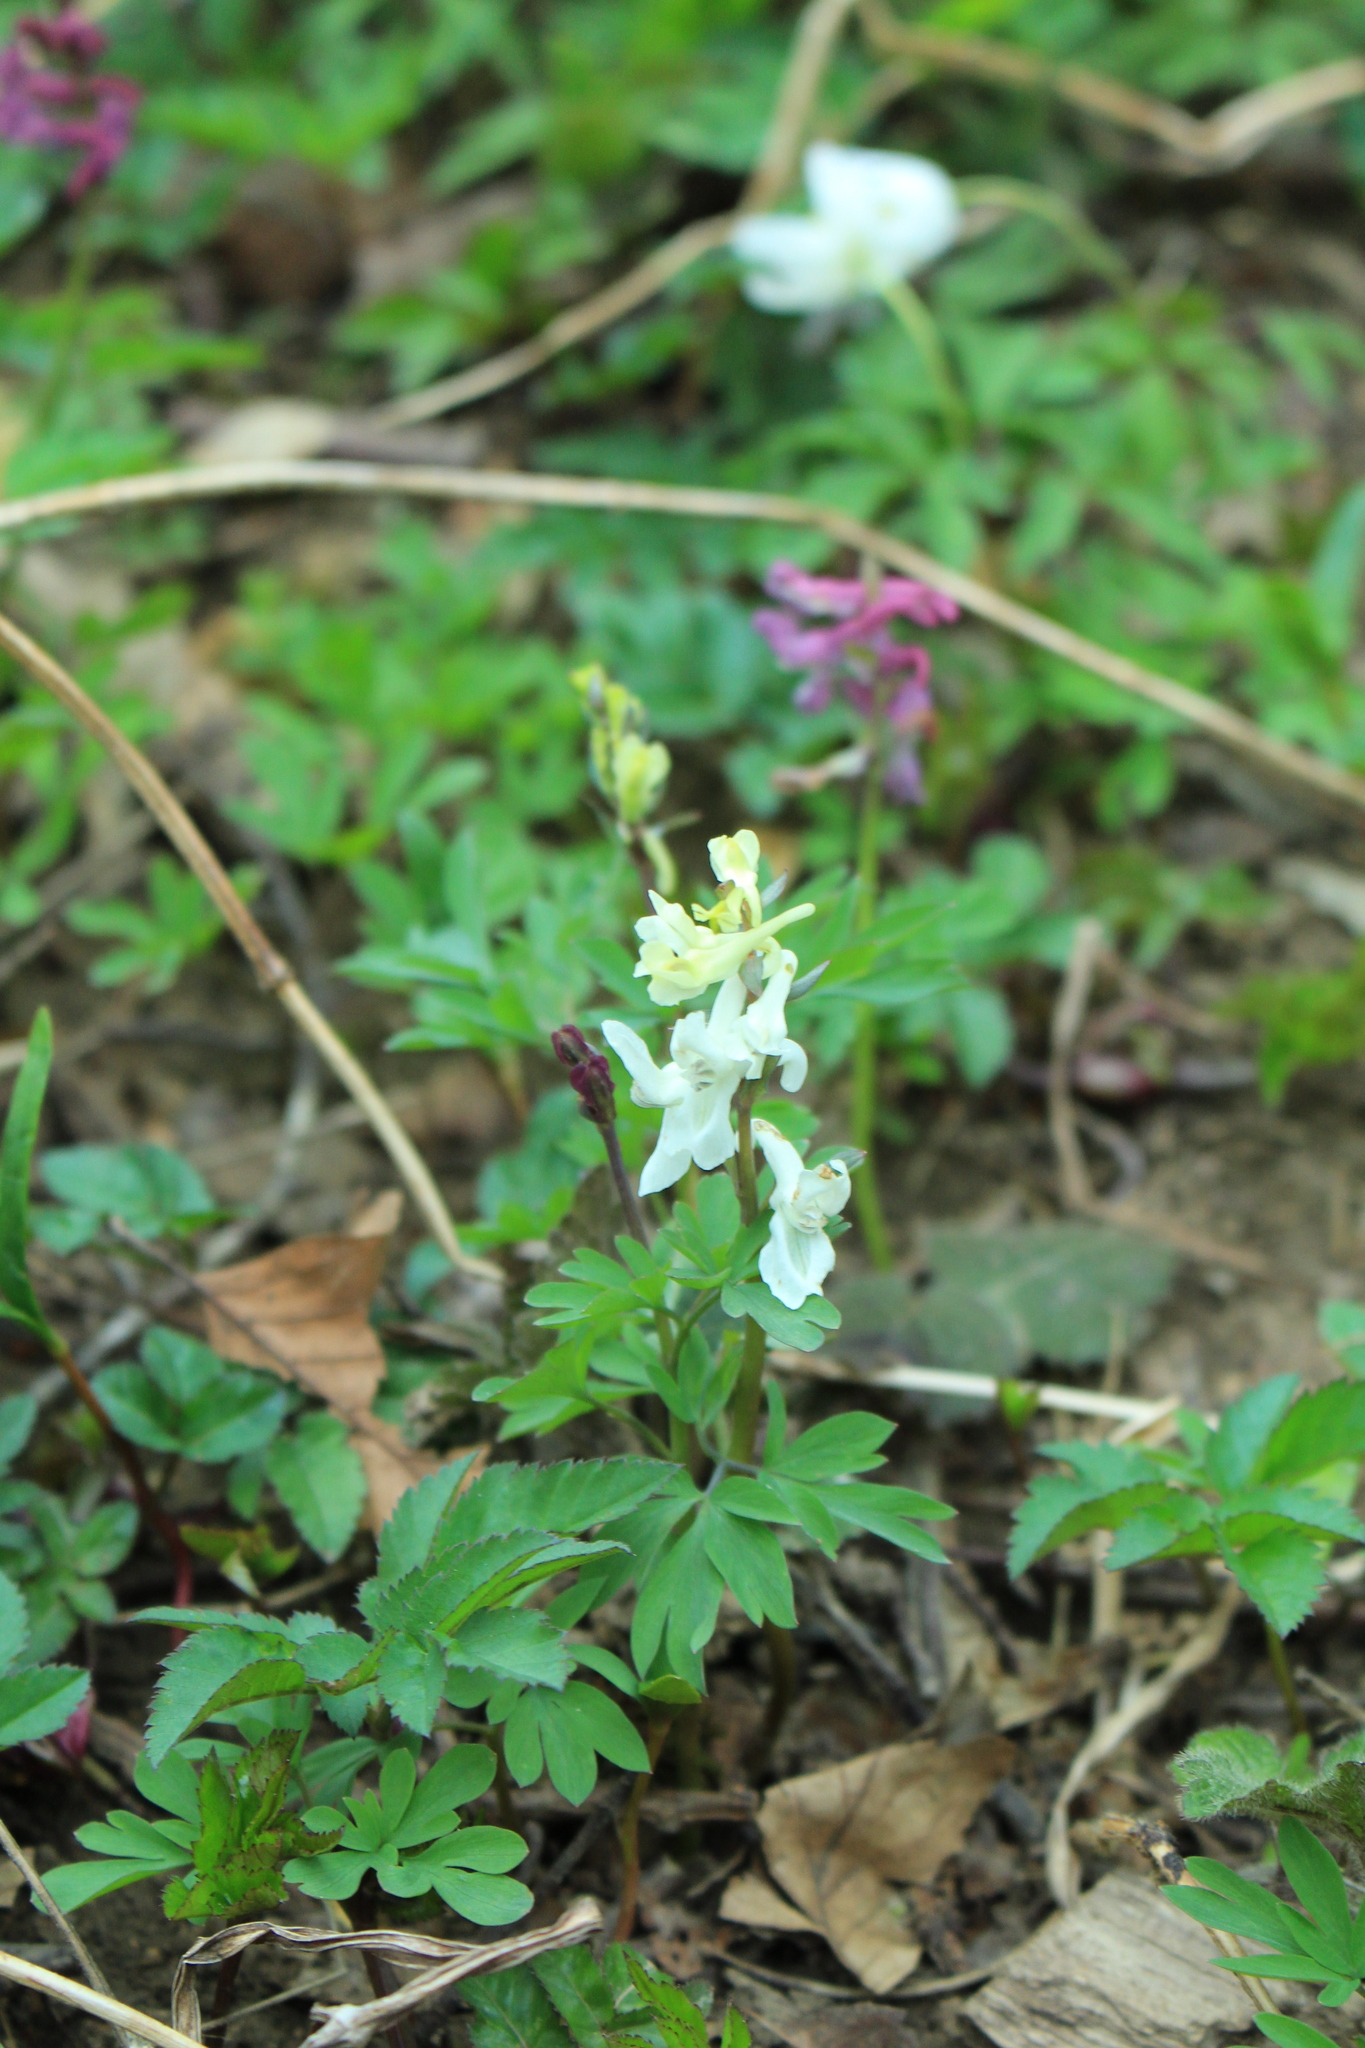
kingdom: Plantae
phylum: Tracheophyta
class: Magnoliopsida
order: Ranunculales
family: Papaveraceae
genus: Corydalis
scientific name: Corydalis cava
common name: Hollowroot
